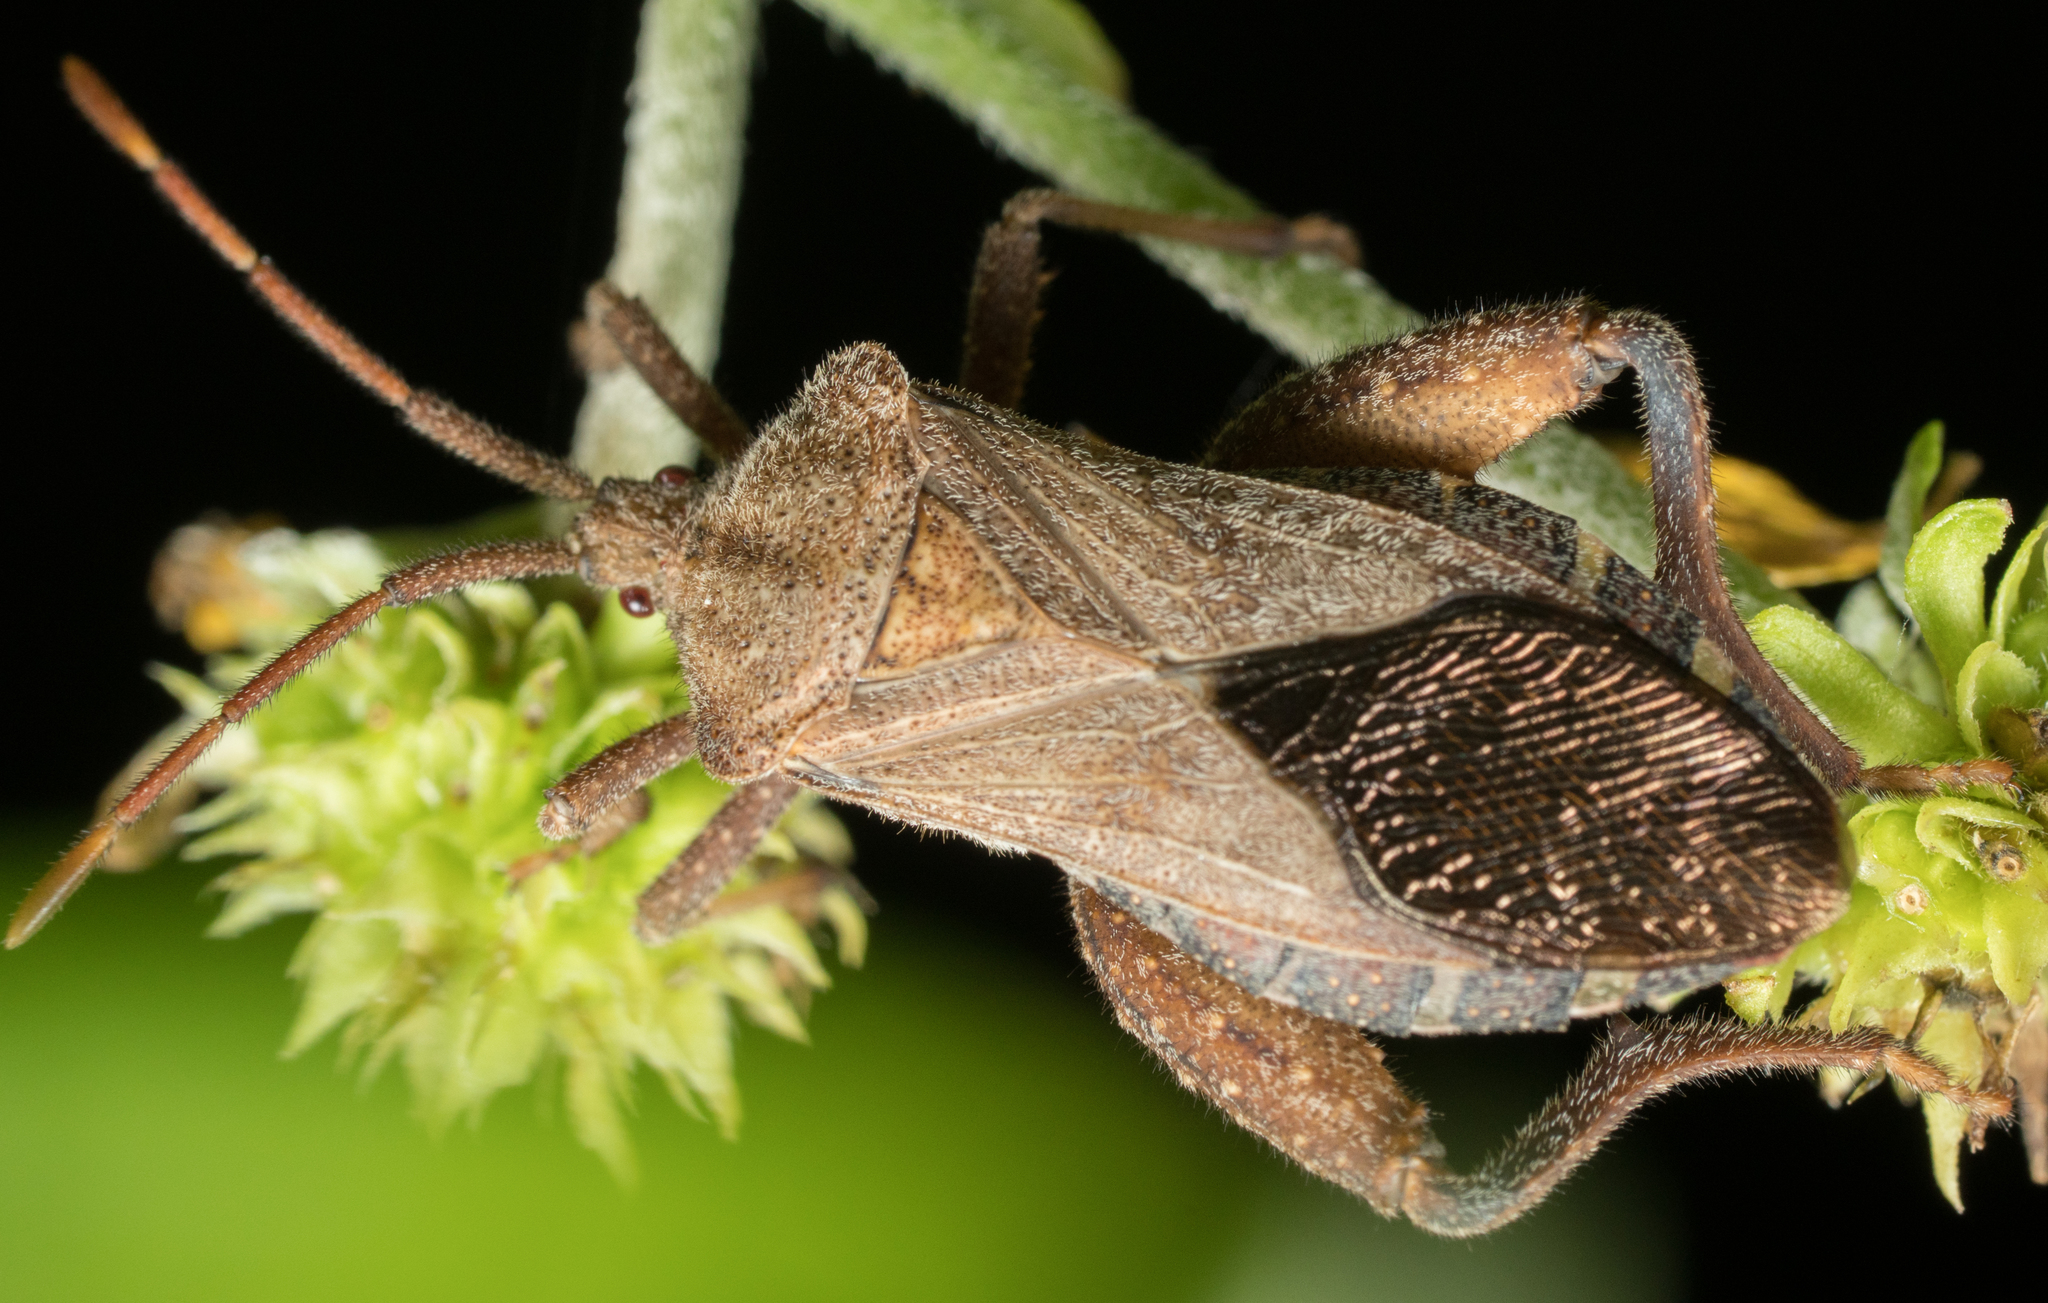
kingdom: Animalia
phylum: Arthropoda
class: Insecta
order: Hemiptera
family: Coreidae
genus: Piezogaster
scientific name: Piezogaster calcarator
